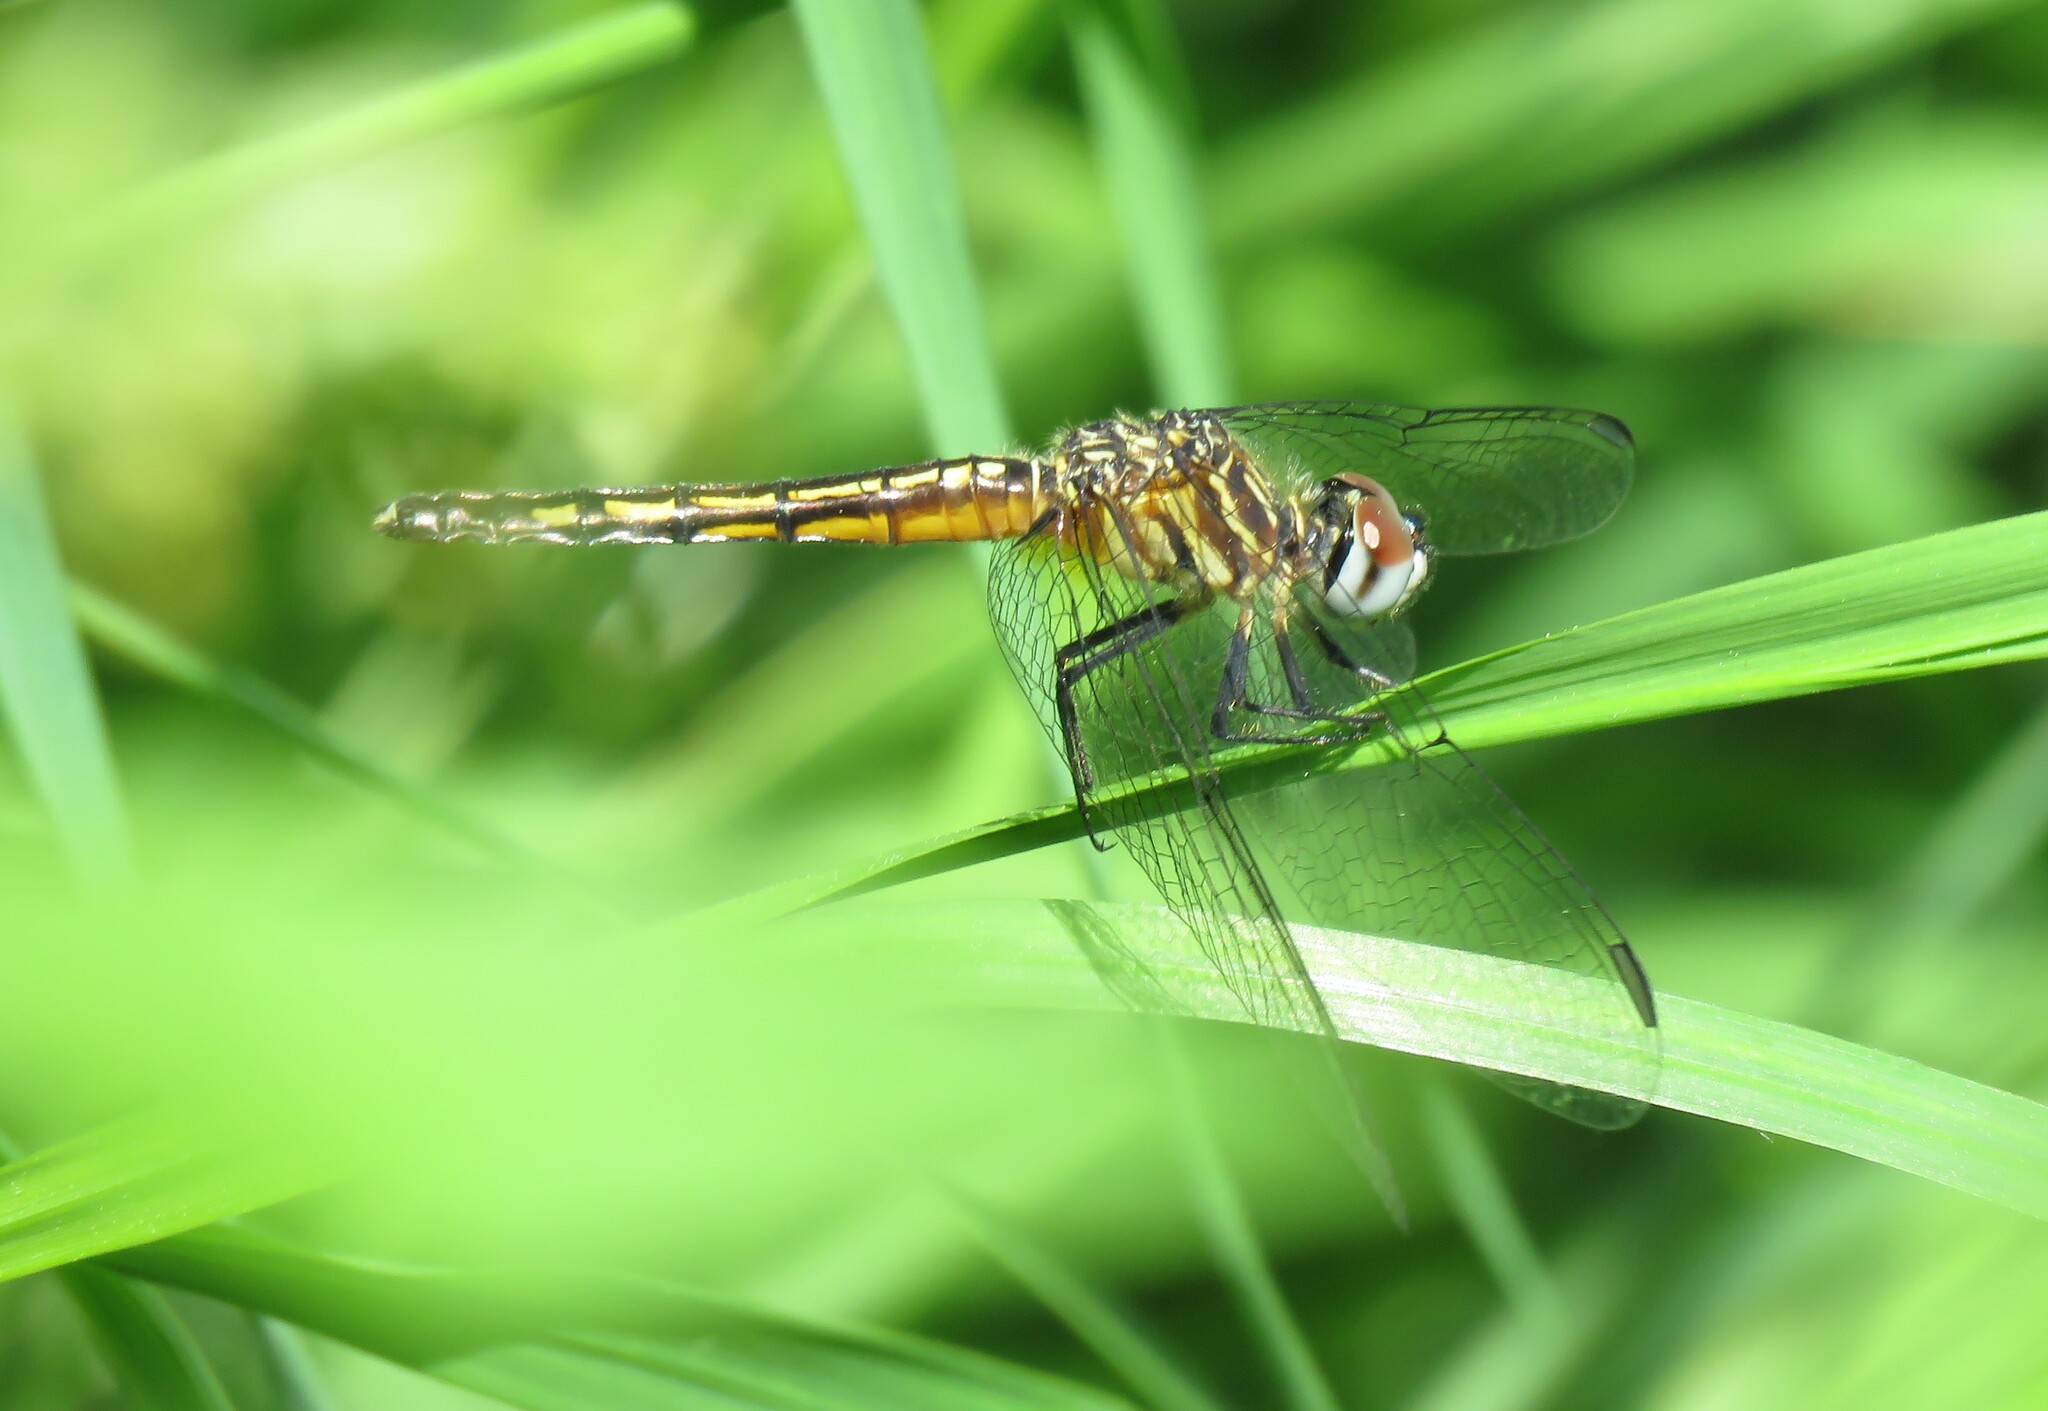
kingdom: Animalia
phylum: Arthropoda
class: Insecta
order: Odonata
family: Libellulidae
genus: Pachydiplax
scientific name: Pachydiplax longipennis
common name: Blue dasher
